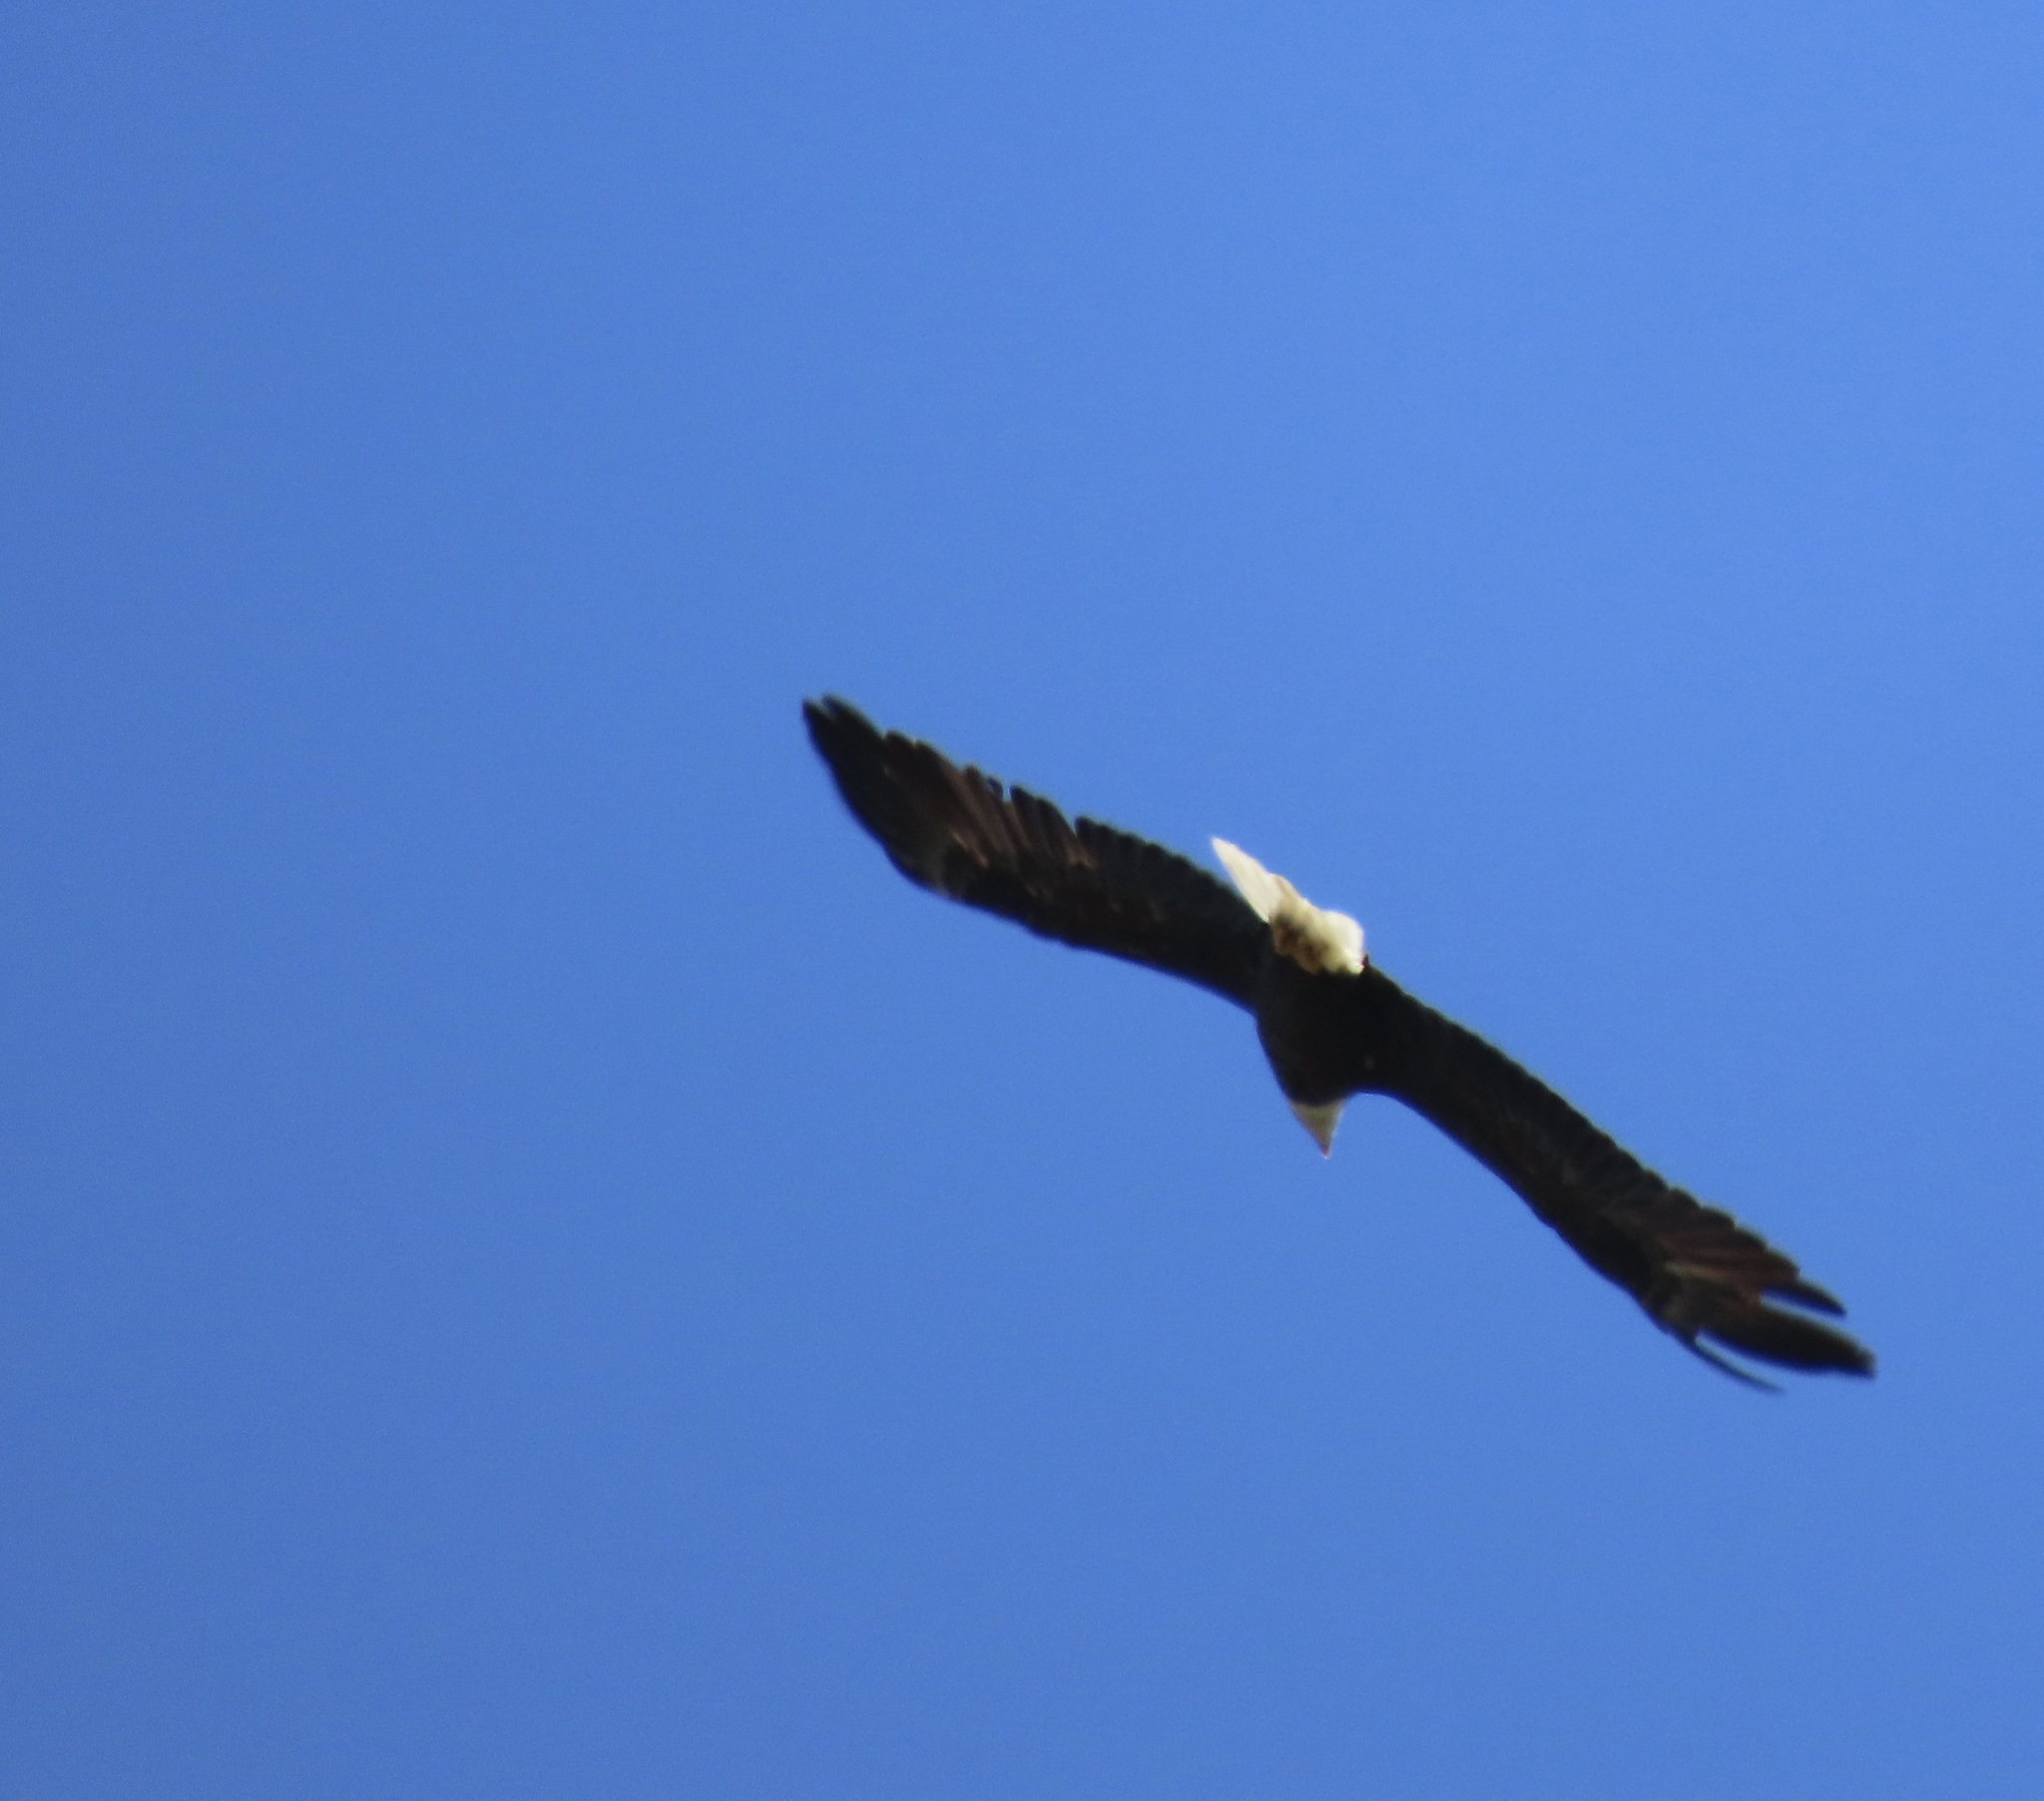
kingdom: Animalia
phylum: Chordata
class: Aves
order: Accipitriformes
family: Accipitridae
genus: Haliaeetus
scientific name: Haliaeetus leucocephalus
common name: Bald eagle
